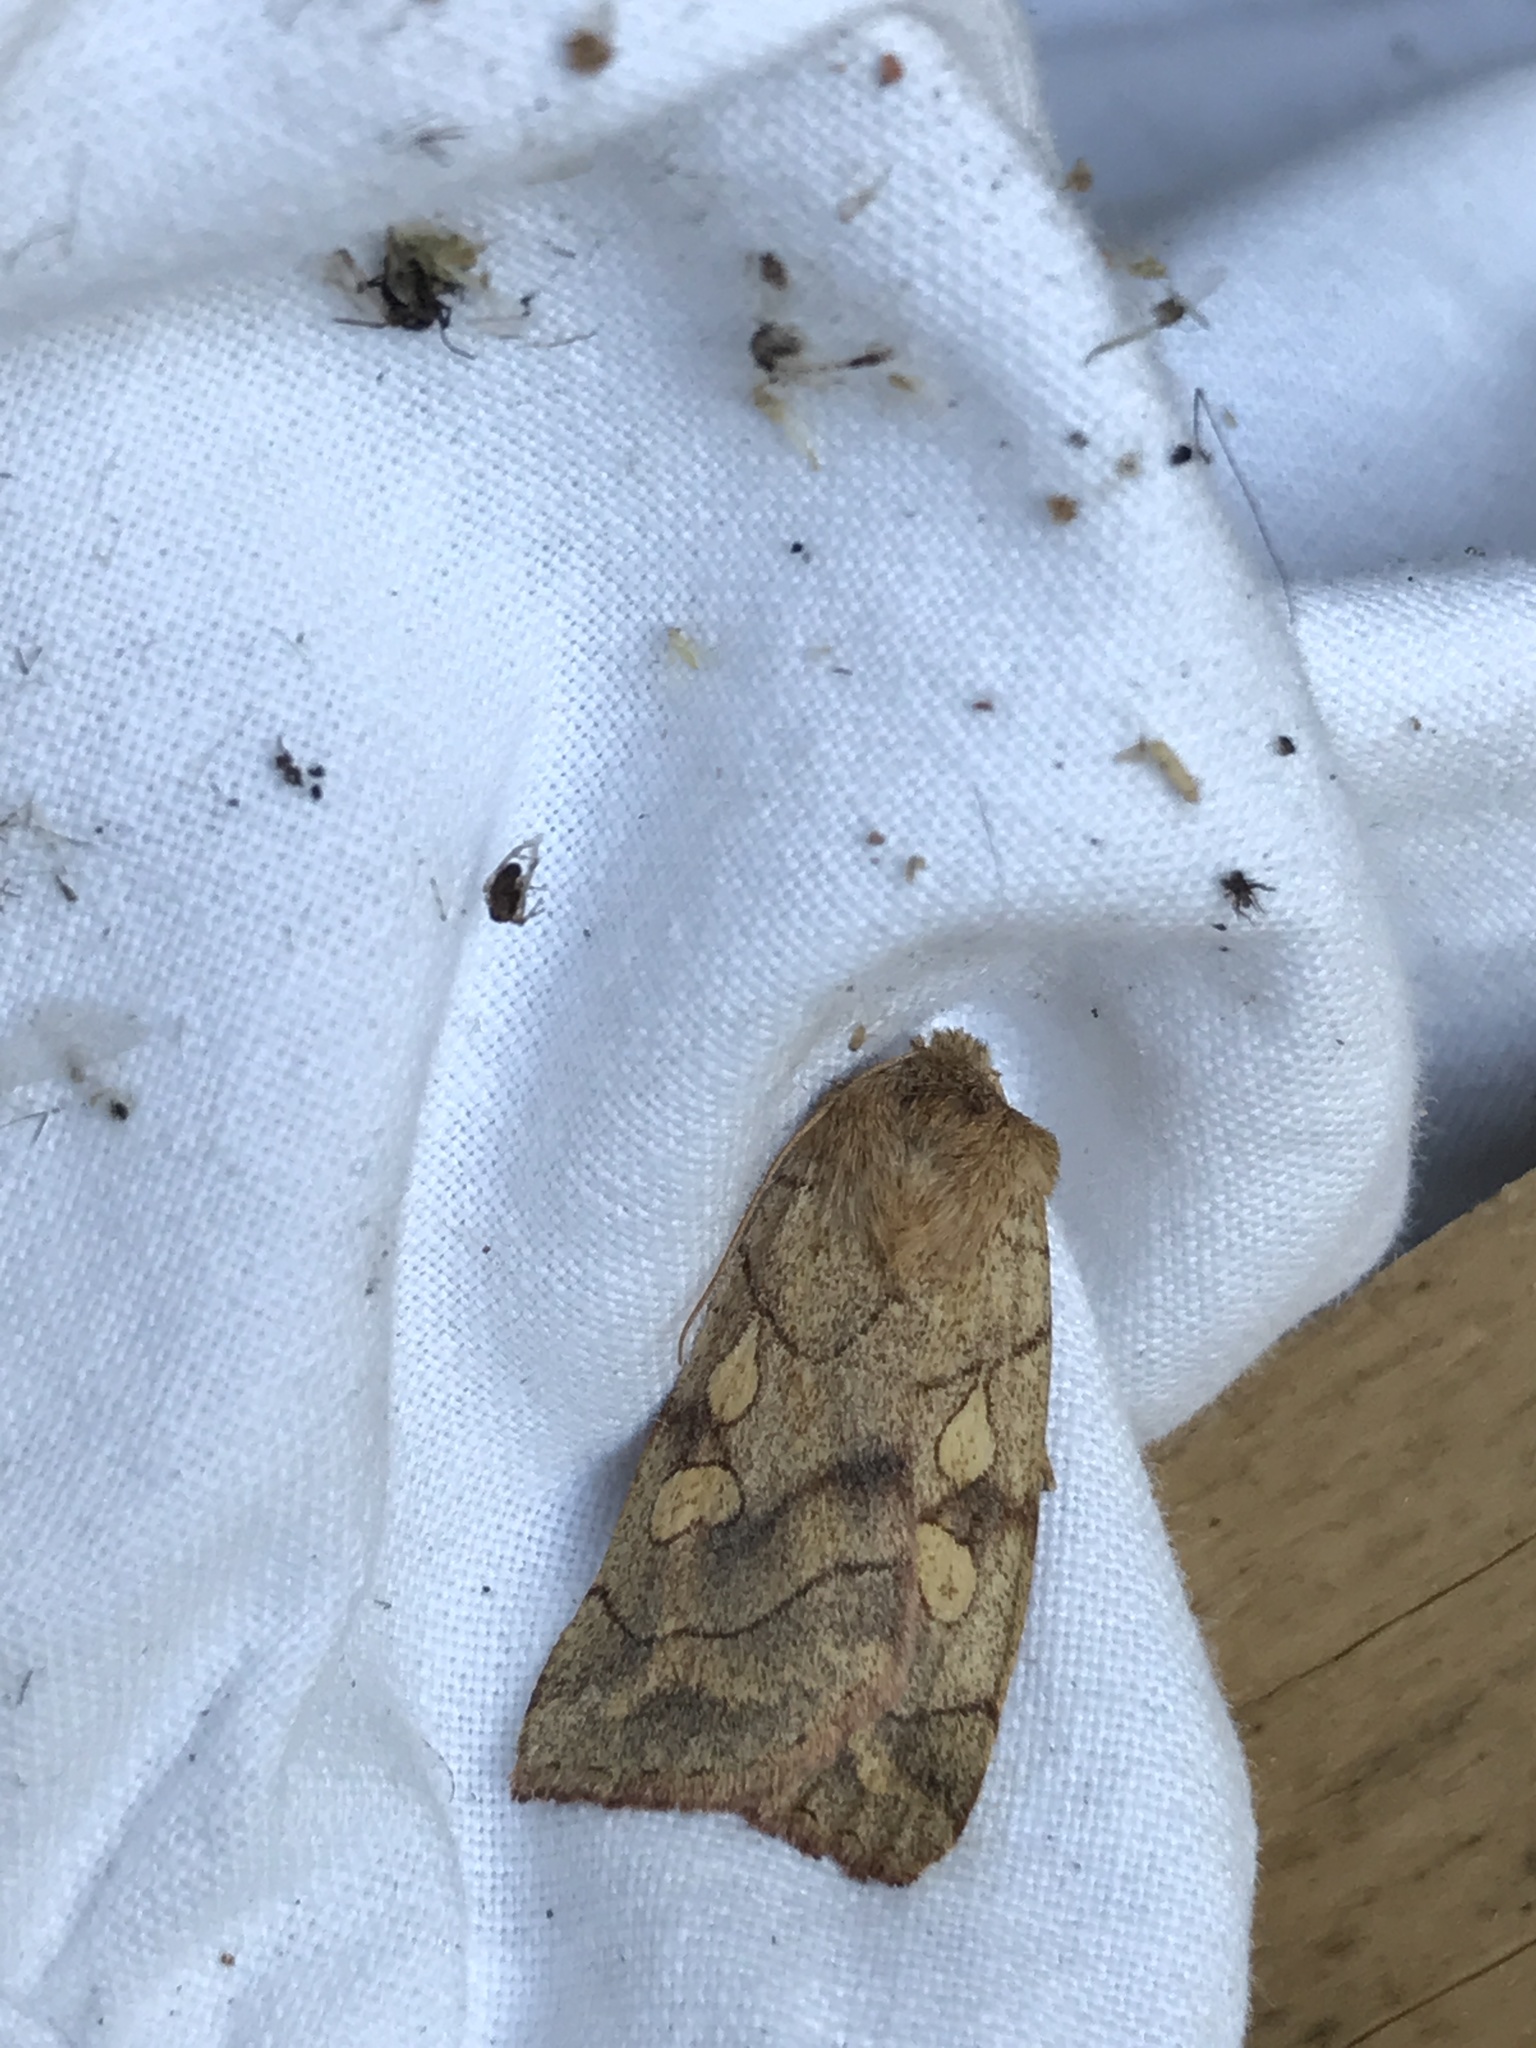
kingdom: Animalia
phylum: Arthropoda
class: Insecta
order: Lepidoptera
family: Noctuidae
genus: Enargia
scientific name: Enargia decolor
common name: Aspen twoleaf tier moth
